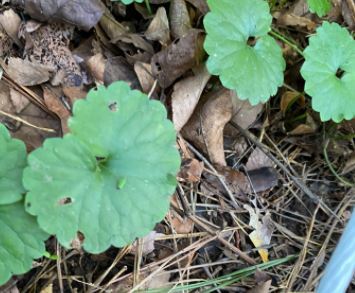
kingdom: Plantae
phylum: Tracheophyta
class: Magnoliopsida
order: Lamiales
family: Lamiaceae
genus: Glechoma
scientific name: Glechoma hederacea
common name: Ground ivy
